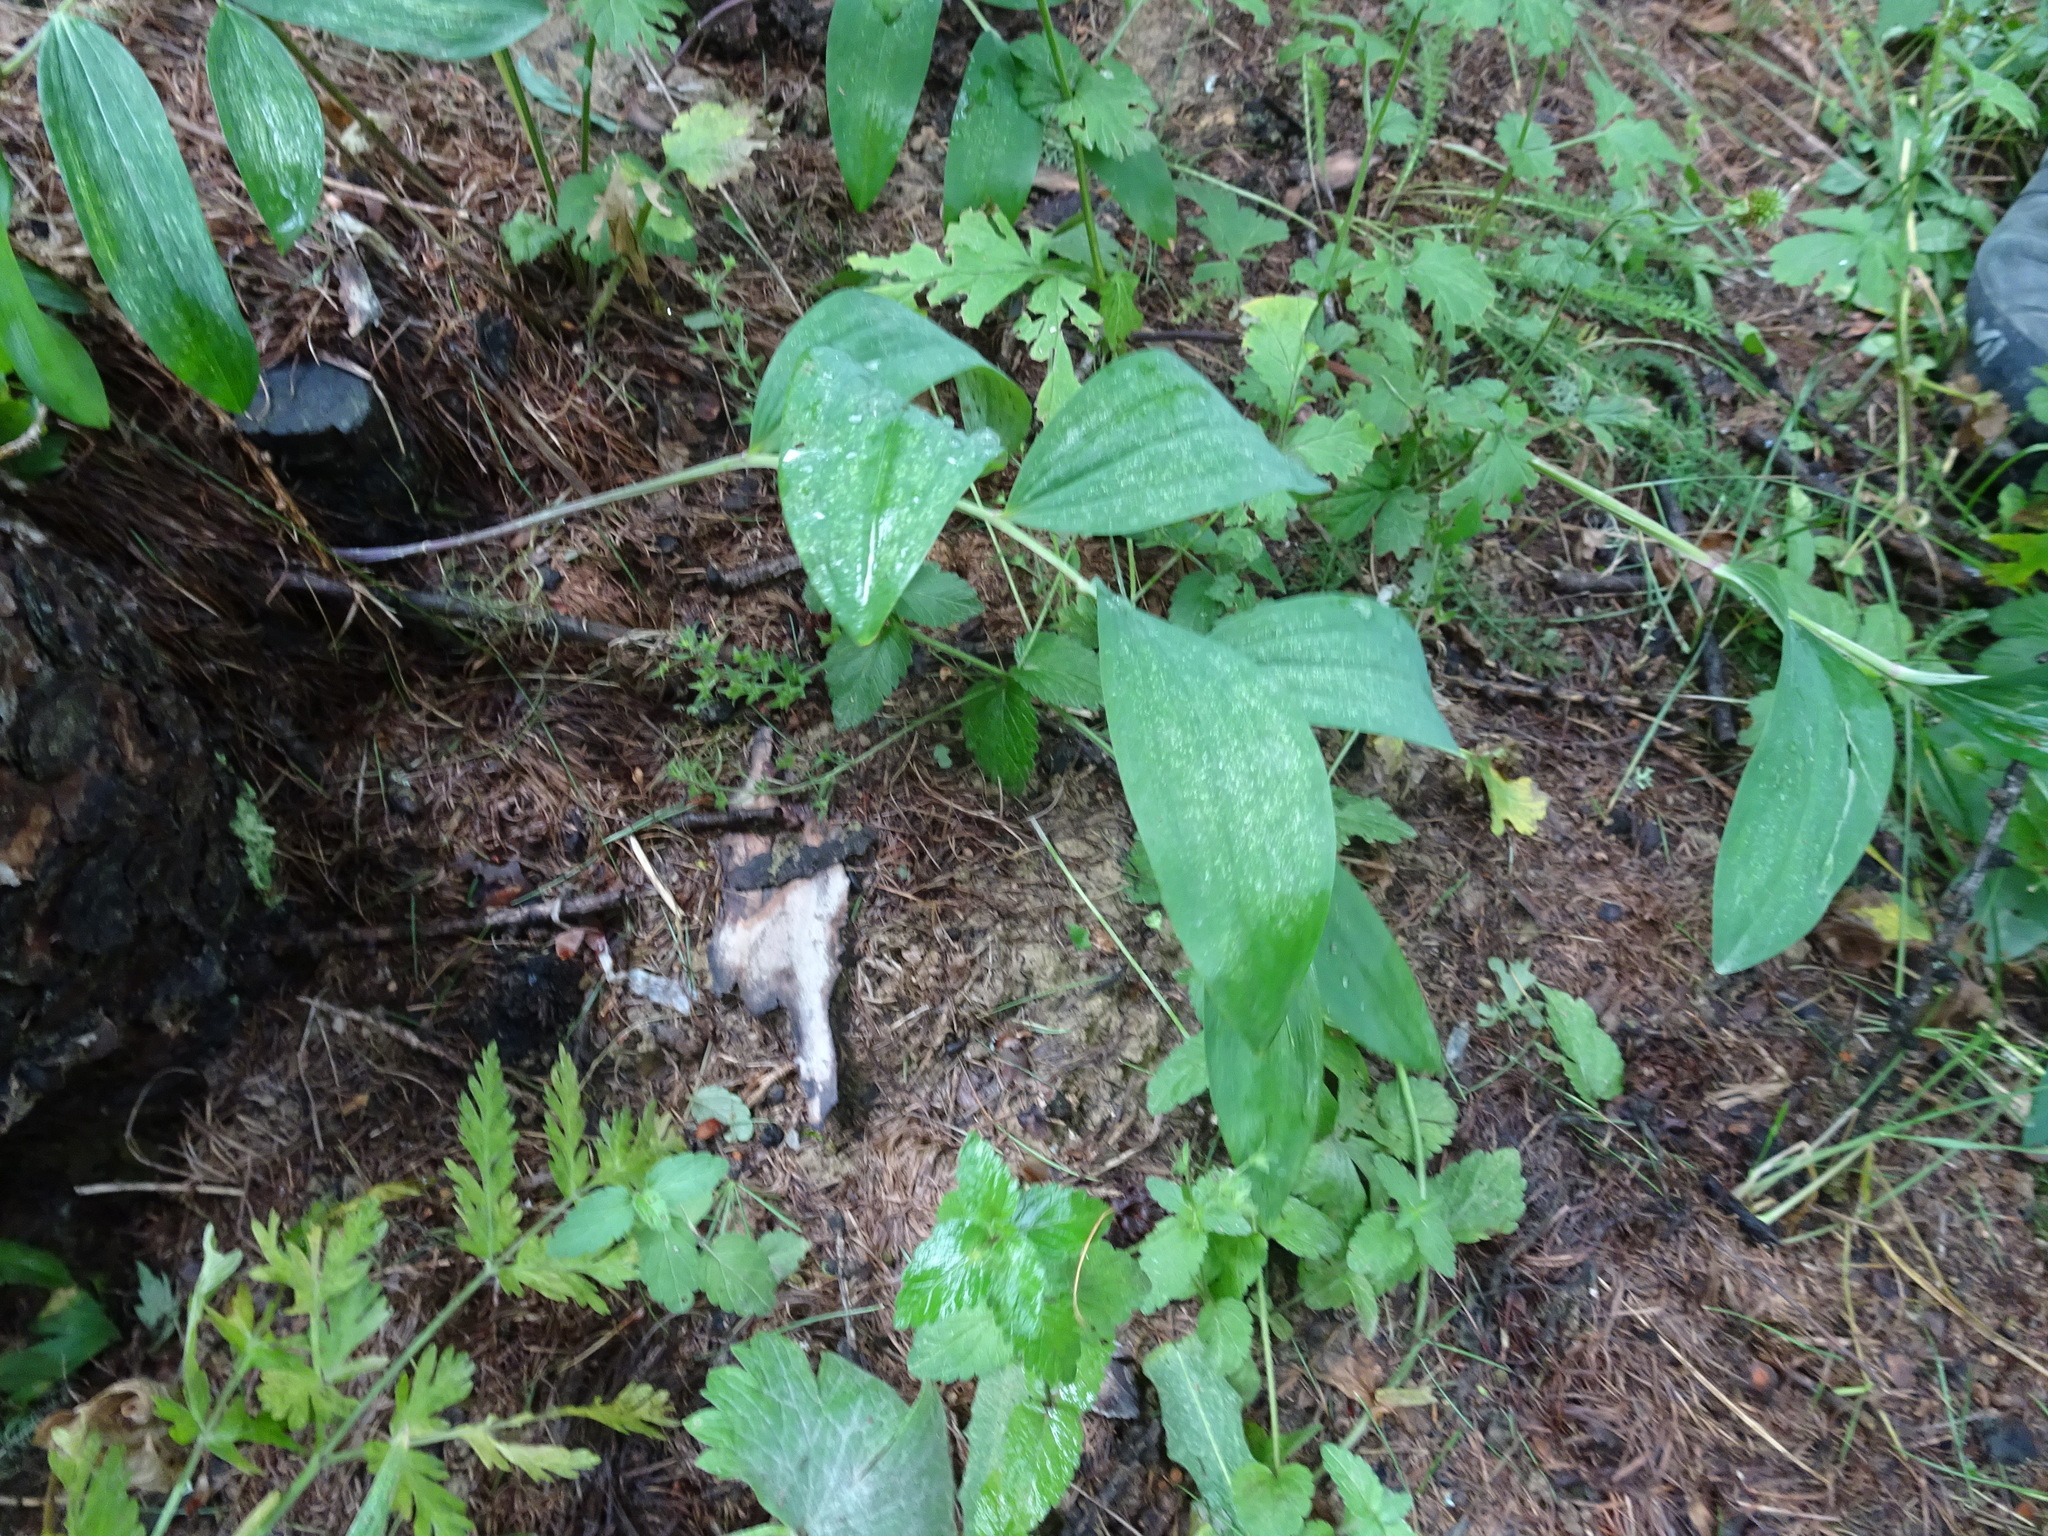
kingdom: Plantae
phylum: Tracheophyta
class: Liliopsida
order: Asparagales
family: Asparagaceae
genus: Polygonatum
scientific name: Polygonatum odoratum
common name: Angular solomon's-seal
